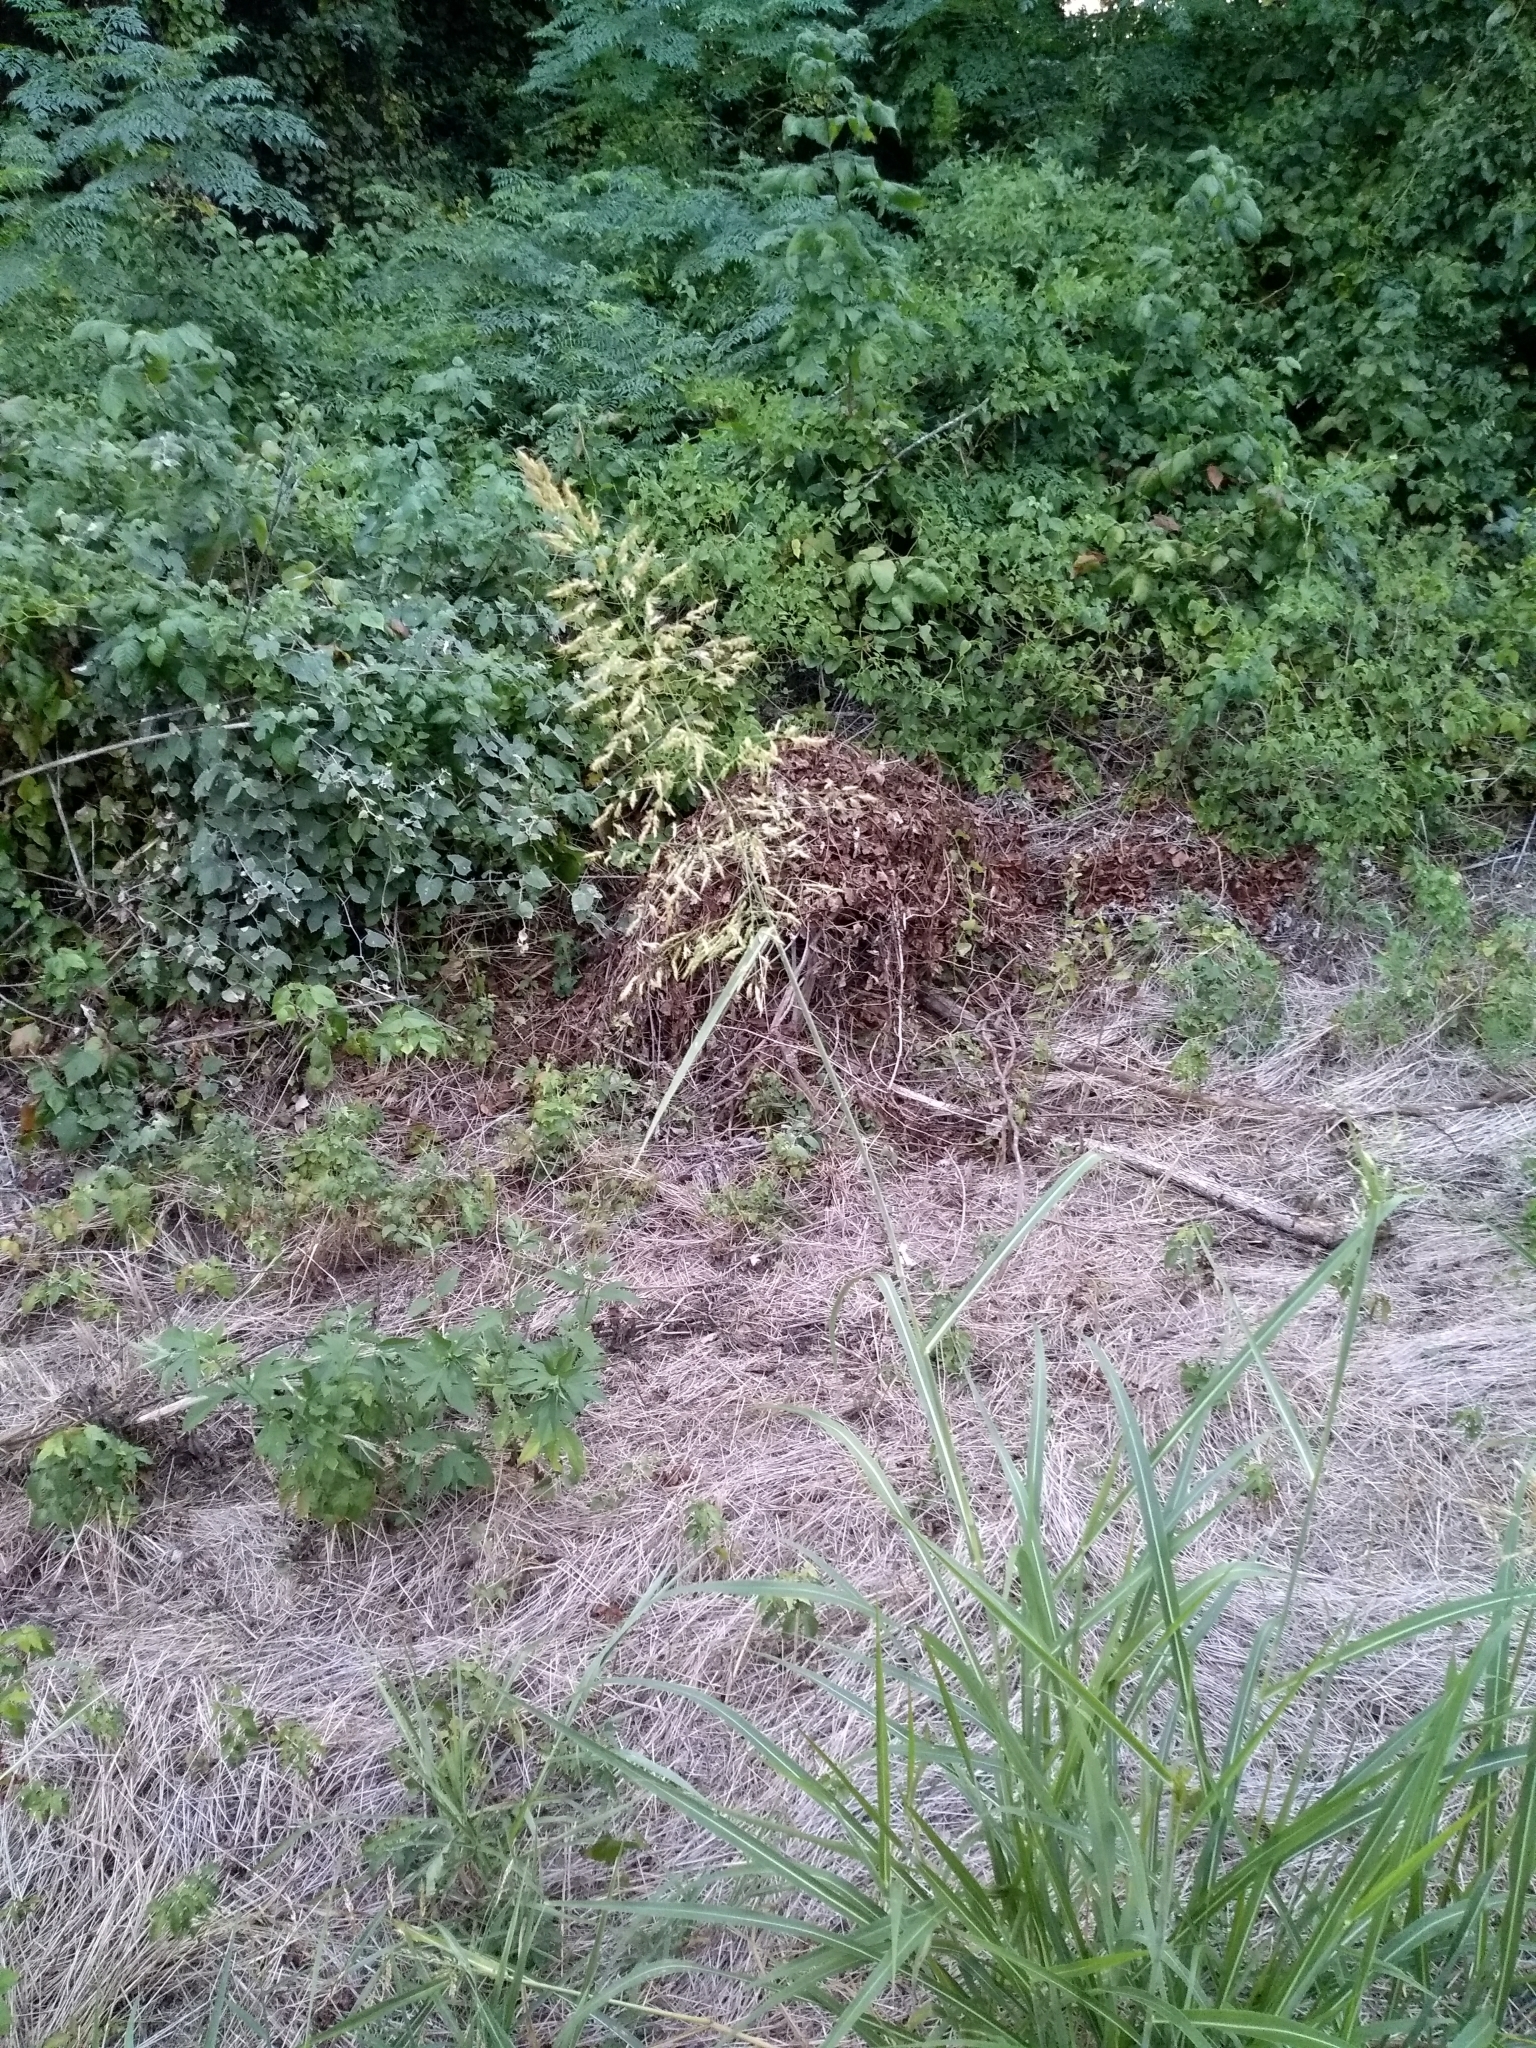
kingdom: Plantae
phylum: Tracheophyta
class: Liliopsida
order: Poales
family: Poaceae
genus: Sorghum
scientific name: Sorghum halepense
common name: Johnson-grass
